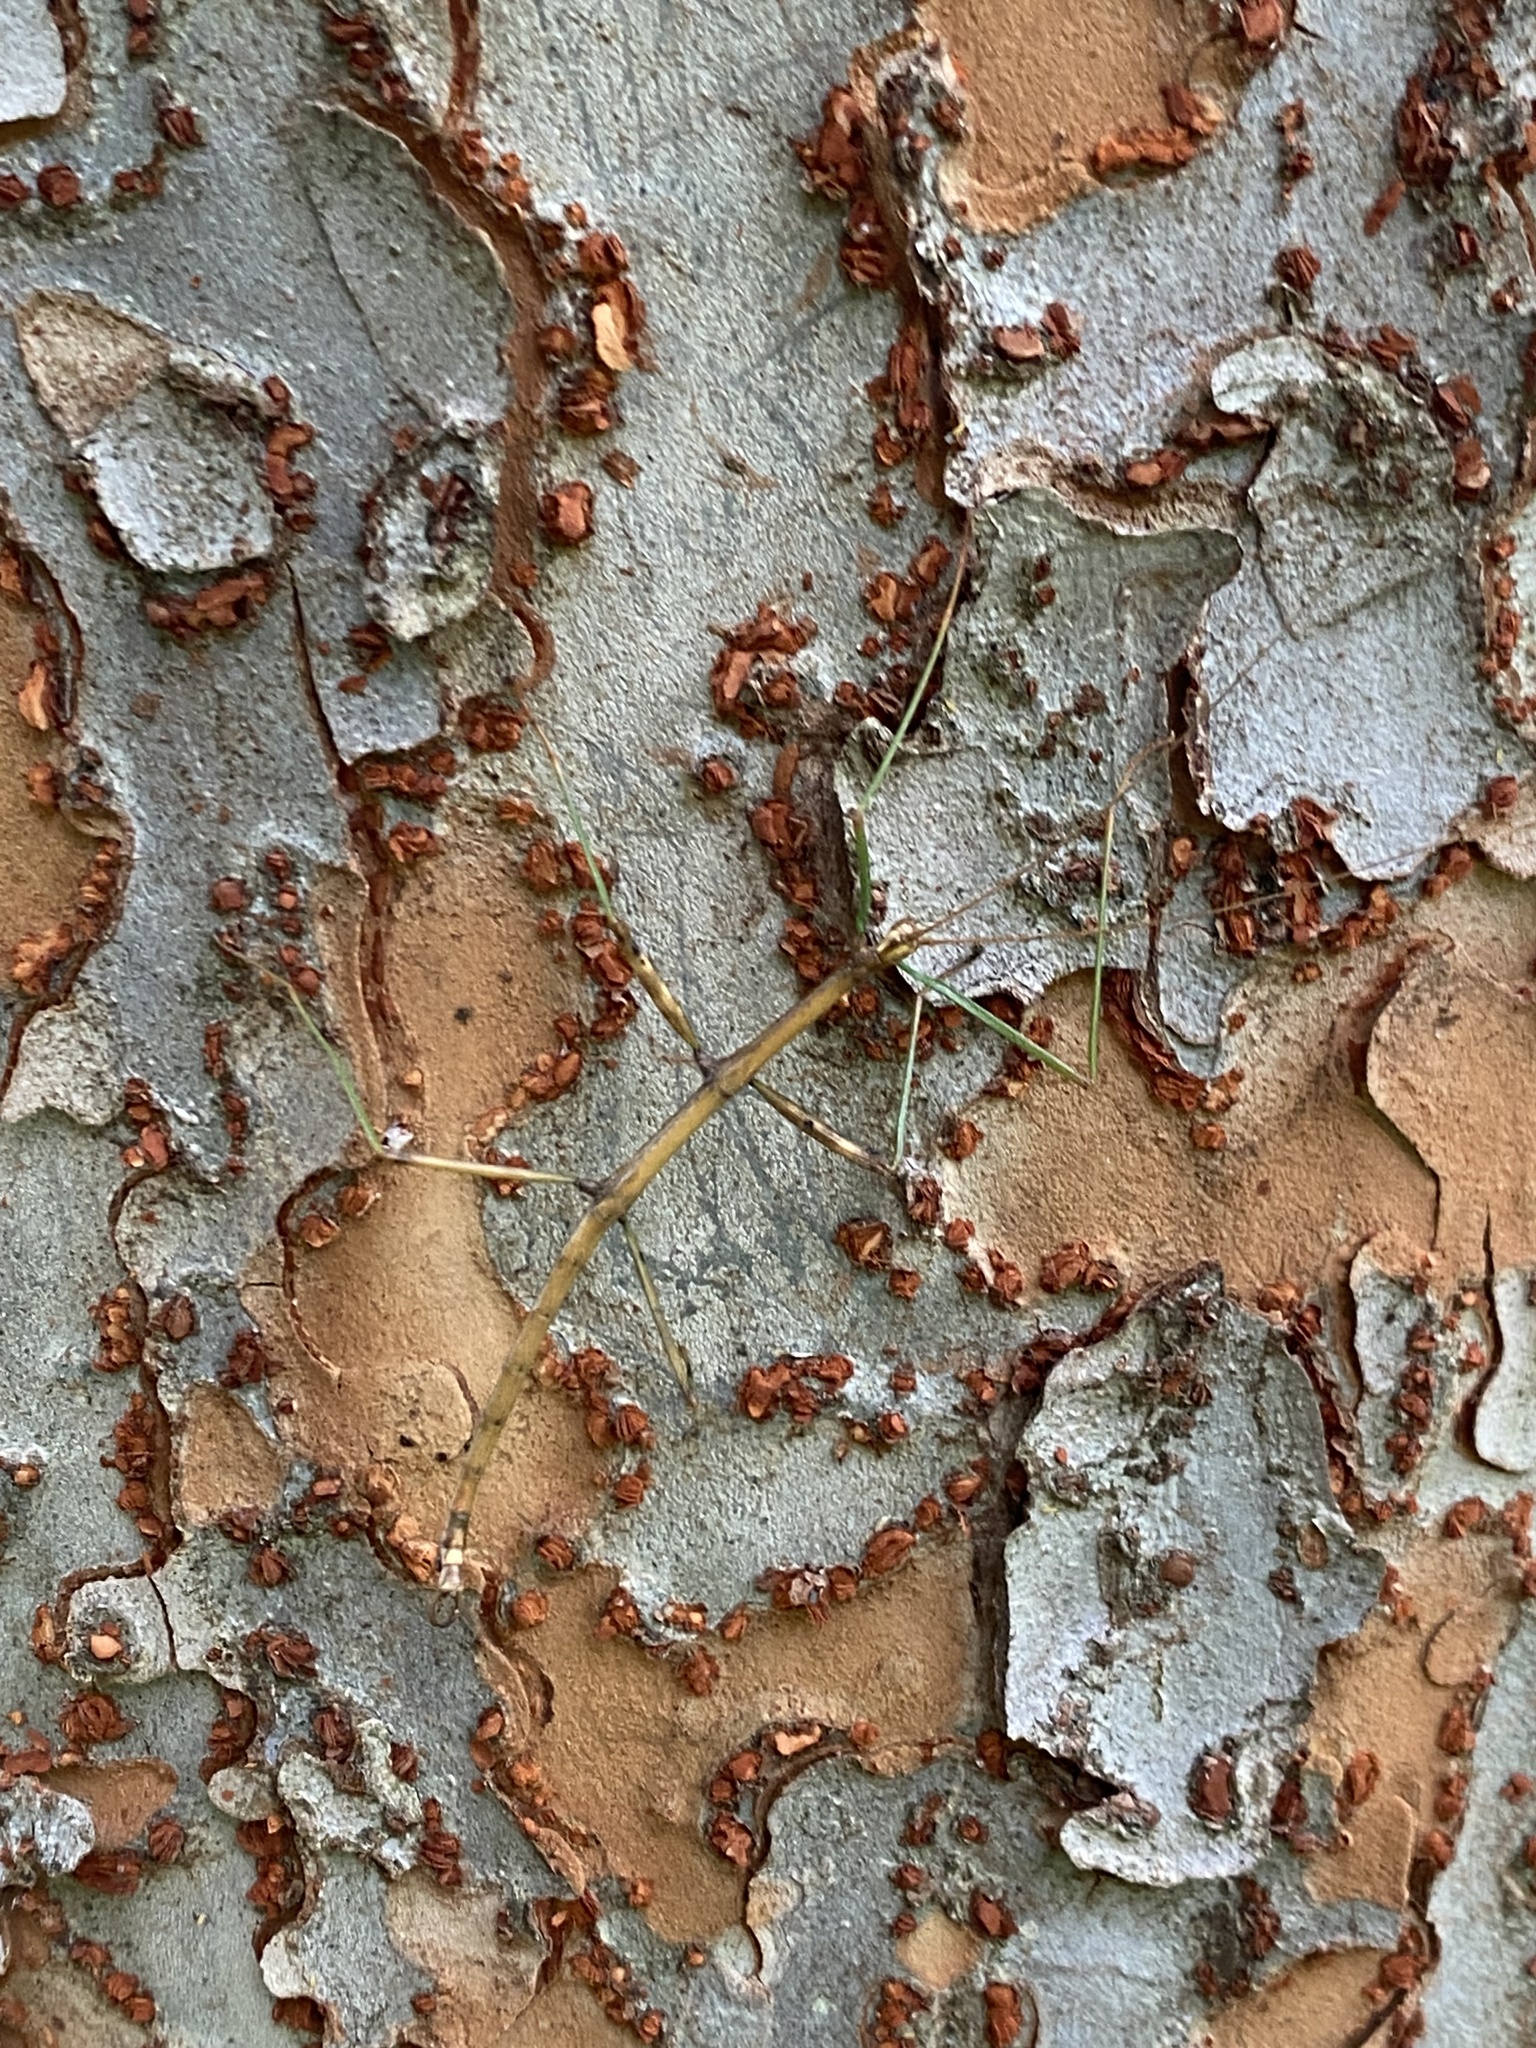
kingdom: Animalia
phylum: Arthropoda
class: Insecta
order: Phasmida
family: Diapheromeridae
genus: Diapheromera
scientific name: Diapheromera femorata
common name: Common american walkingstick
